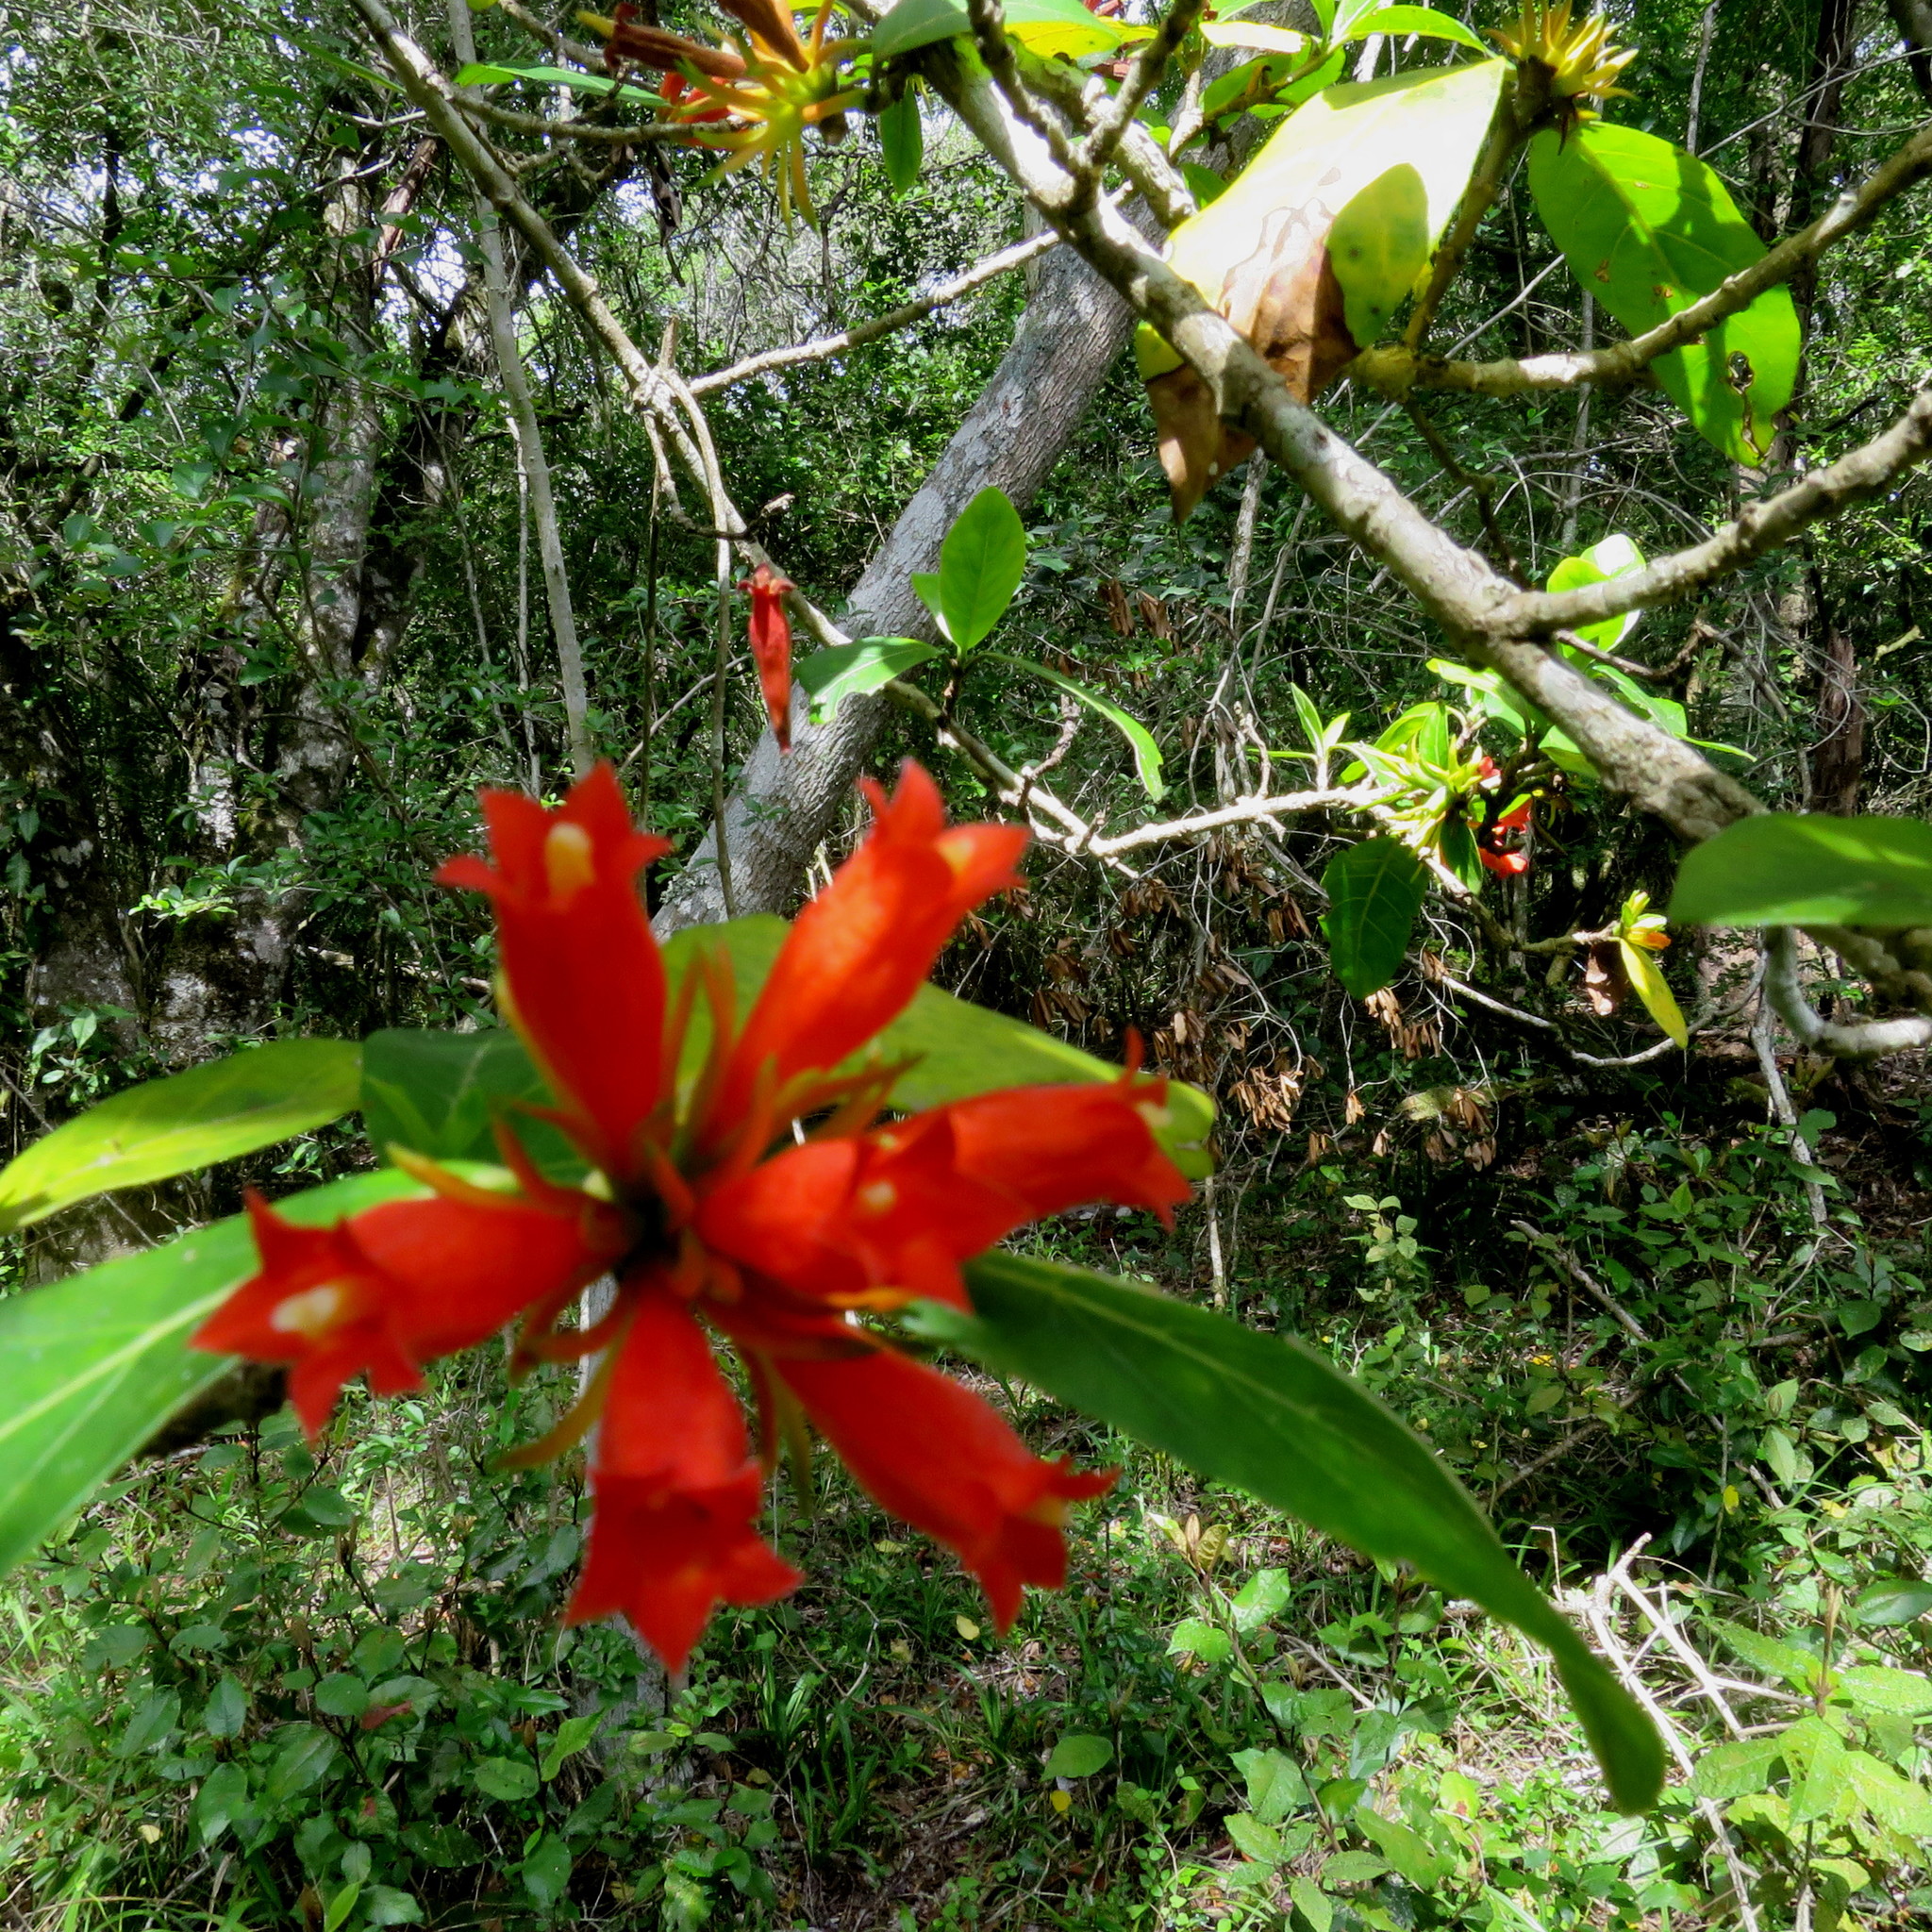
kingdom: Plantae
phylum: Tracheophyta
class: Magnoliopsida
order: Gentianales
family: Rubiaceae
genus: Burchellia
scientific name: Burchellia bubalina
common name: Wild pomegranate
